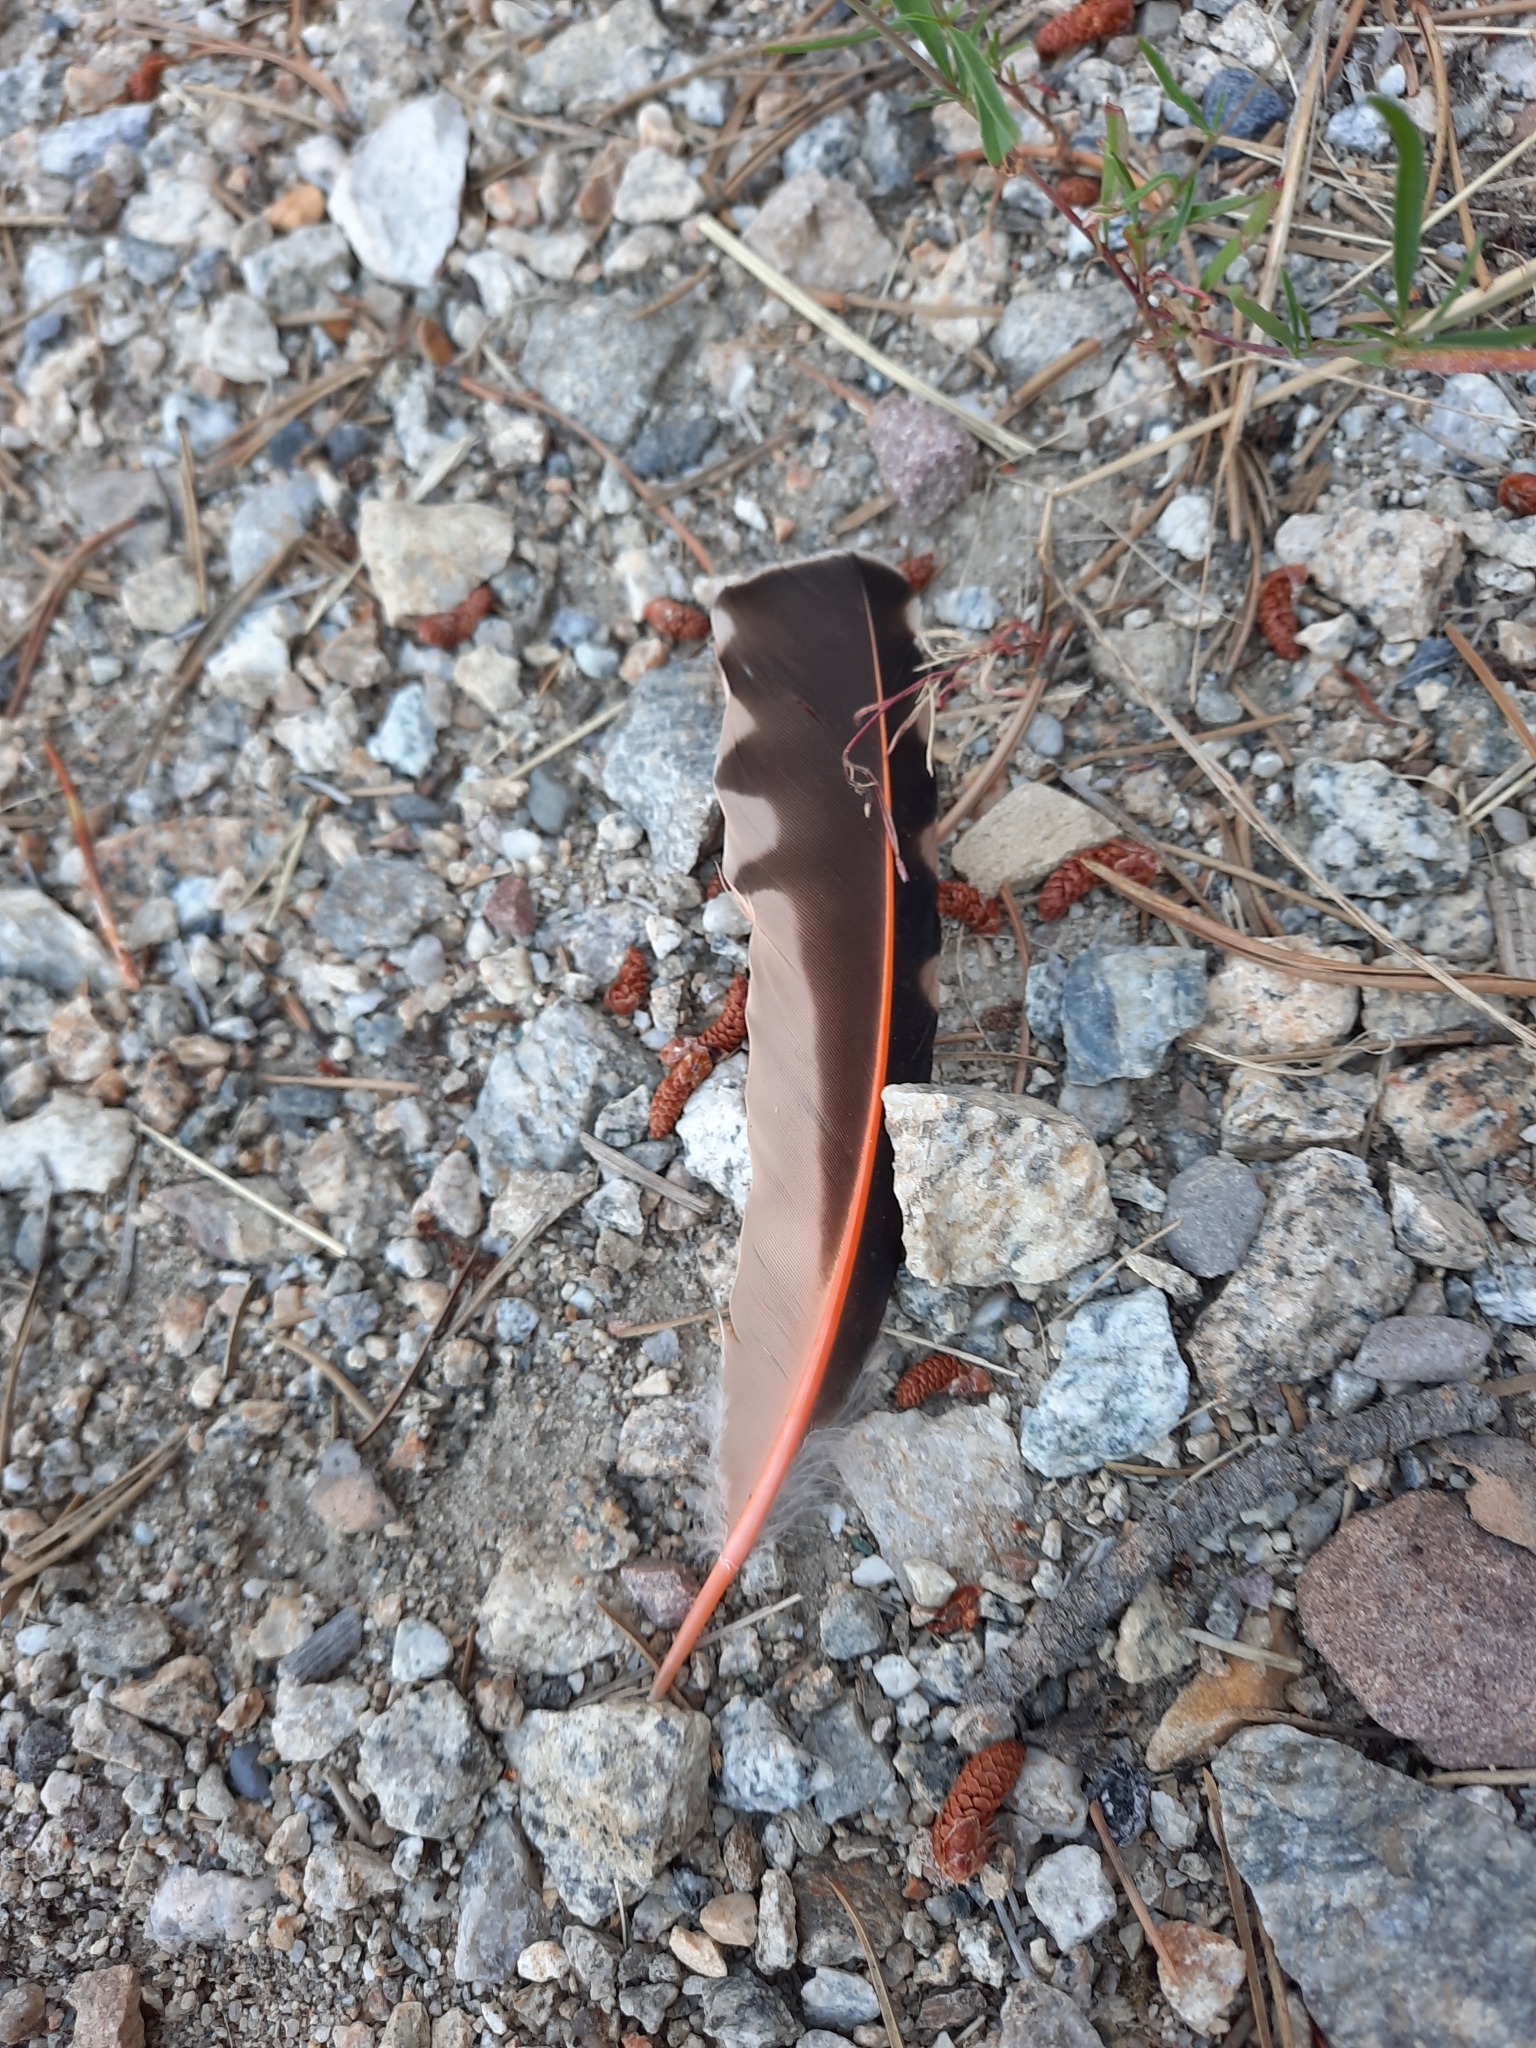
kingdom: Animalia
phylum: Chordata
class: Aves
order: Piciformes
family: Picidae
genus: Colaptes
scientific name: Colaptes auratus
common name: Northern flicker
